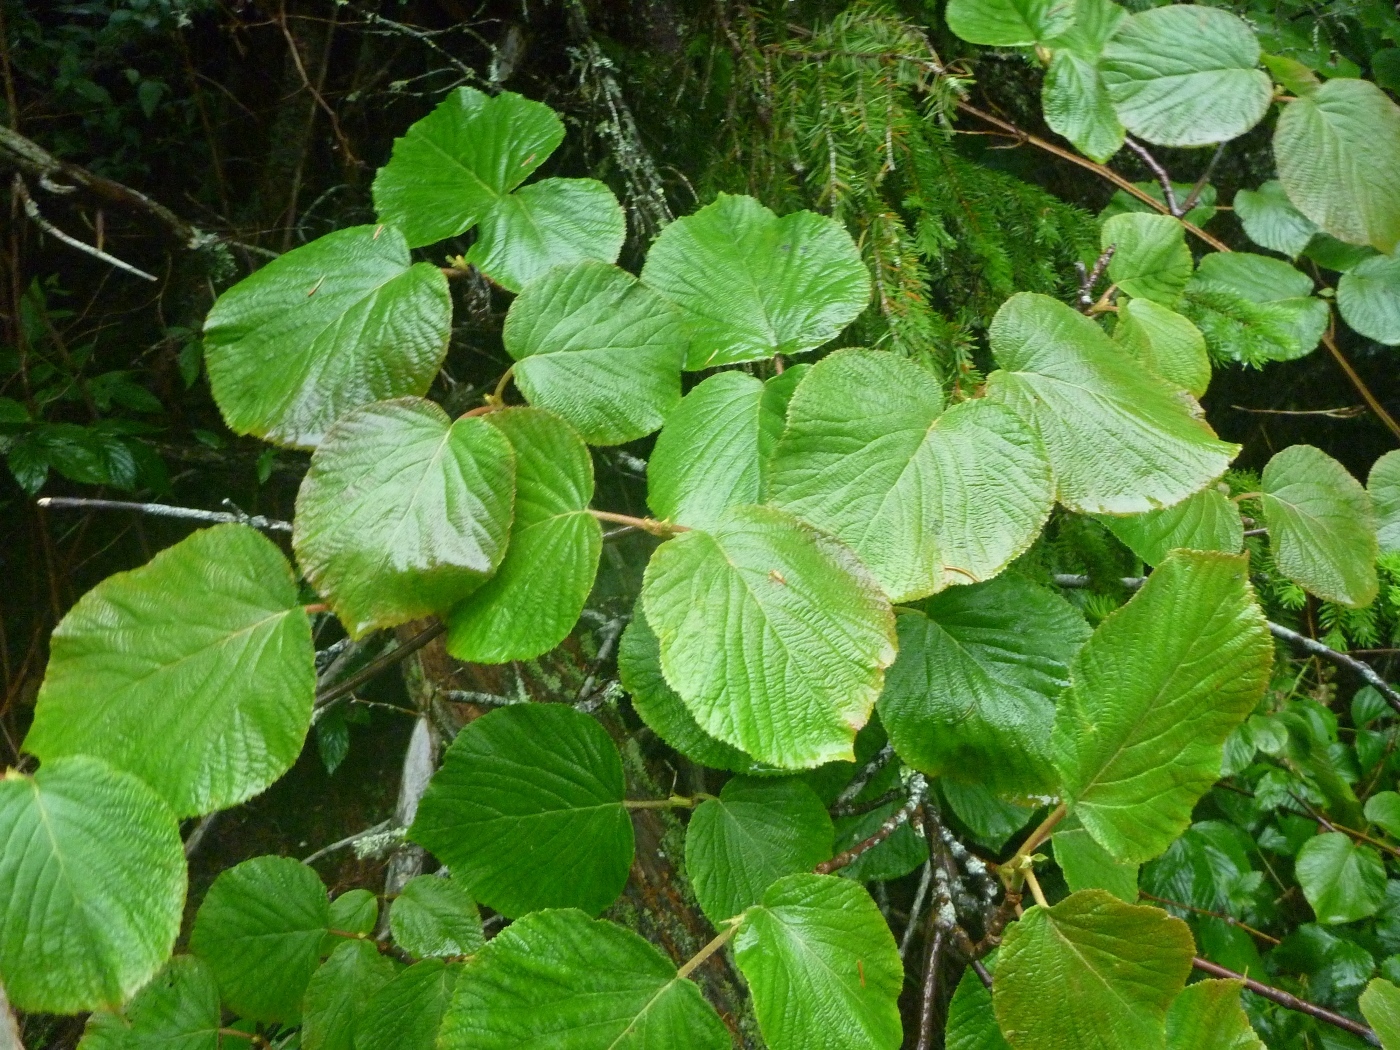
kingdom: Plantae
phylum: Tracheophyta
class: Magnoliopsida
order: Dipsacales
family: Viburnaceae
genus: Viburnum
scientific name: Viburnum lantanoides
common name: Hobblebush
